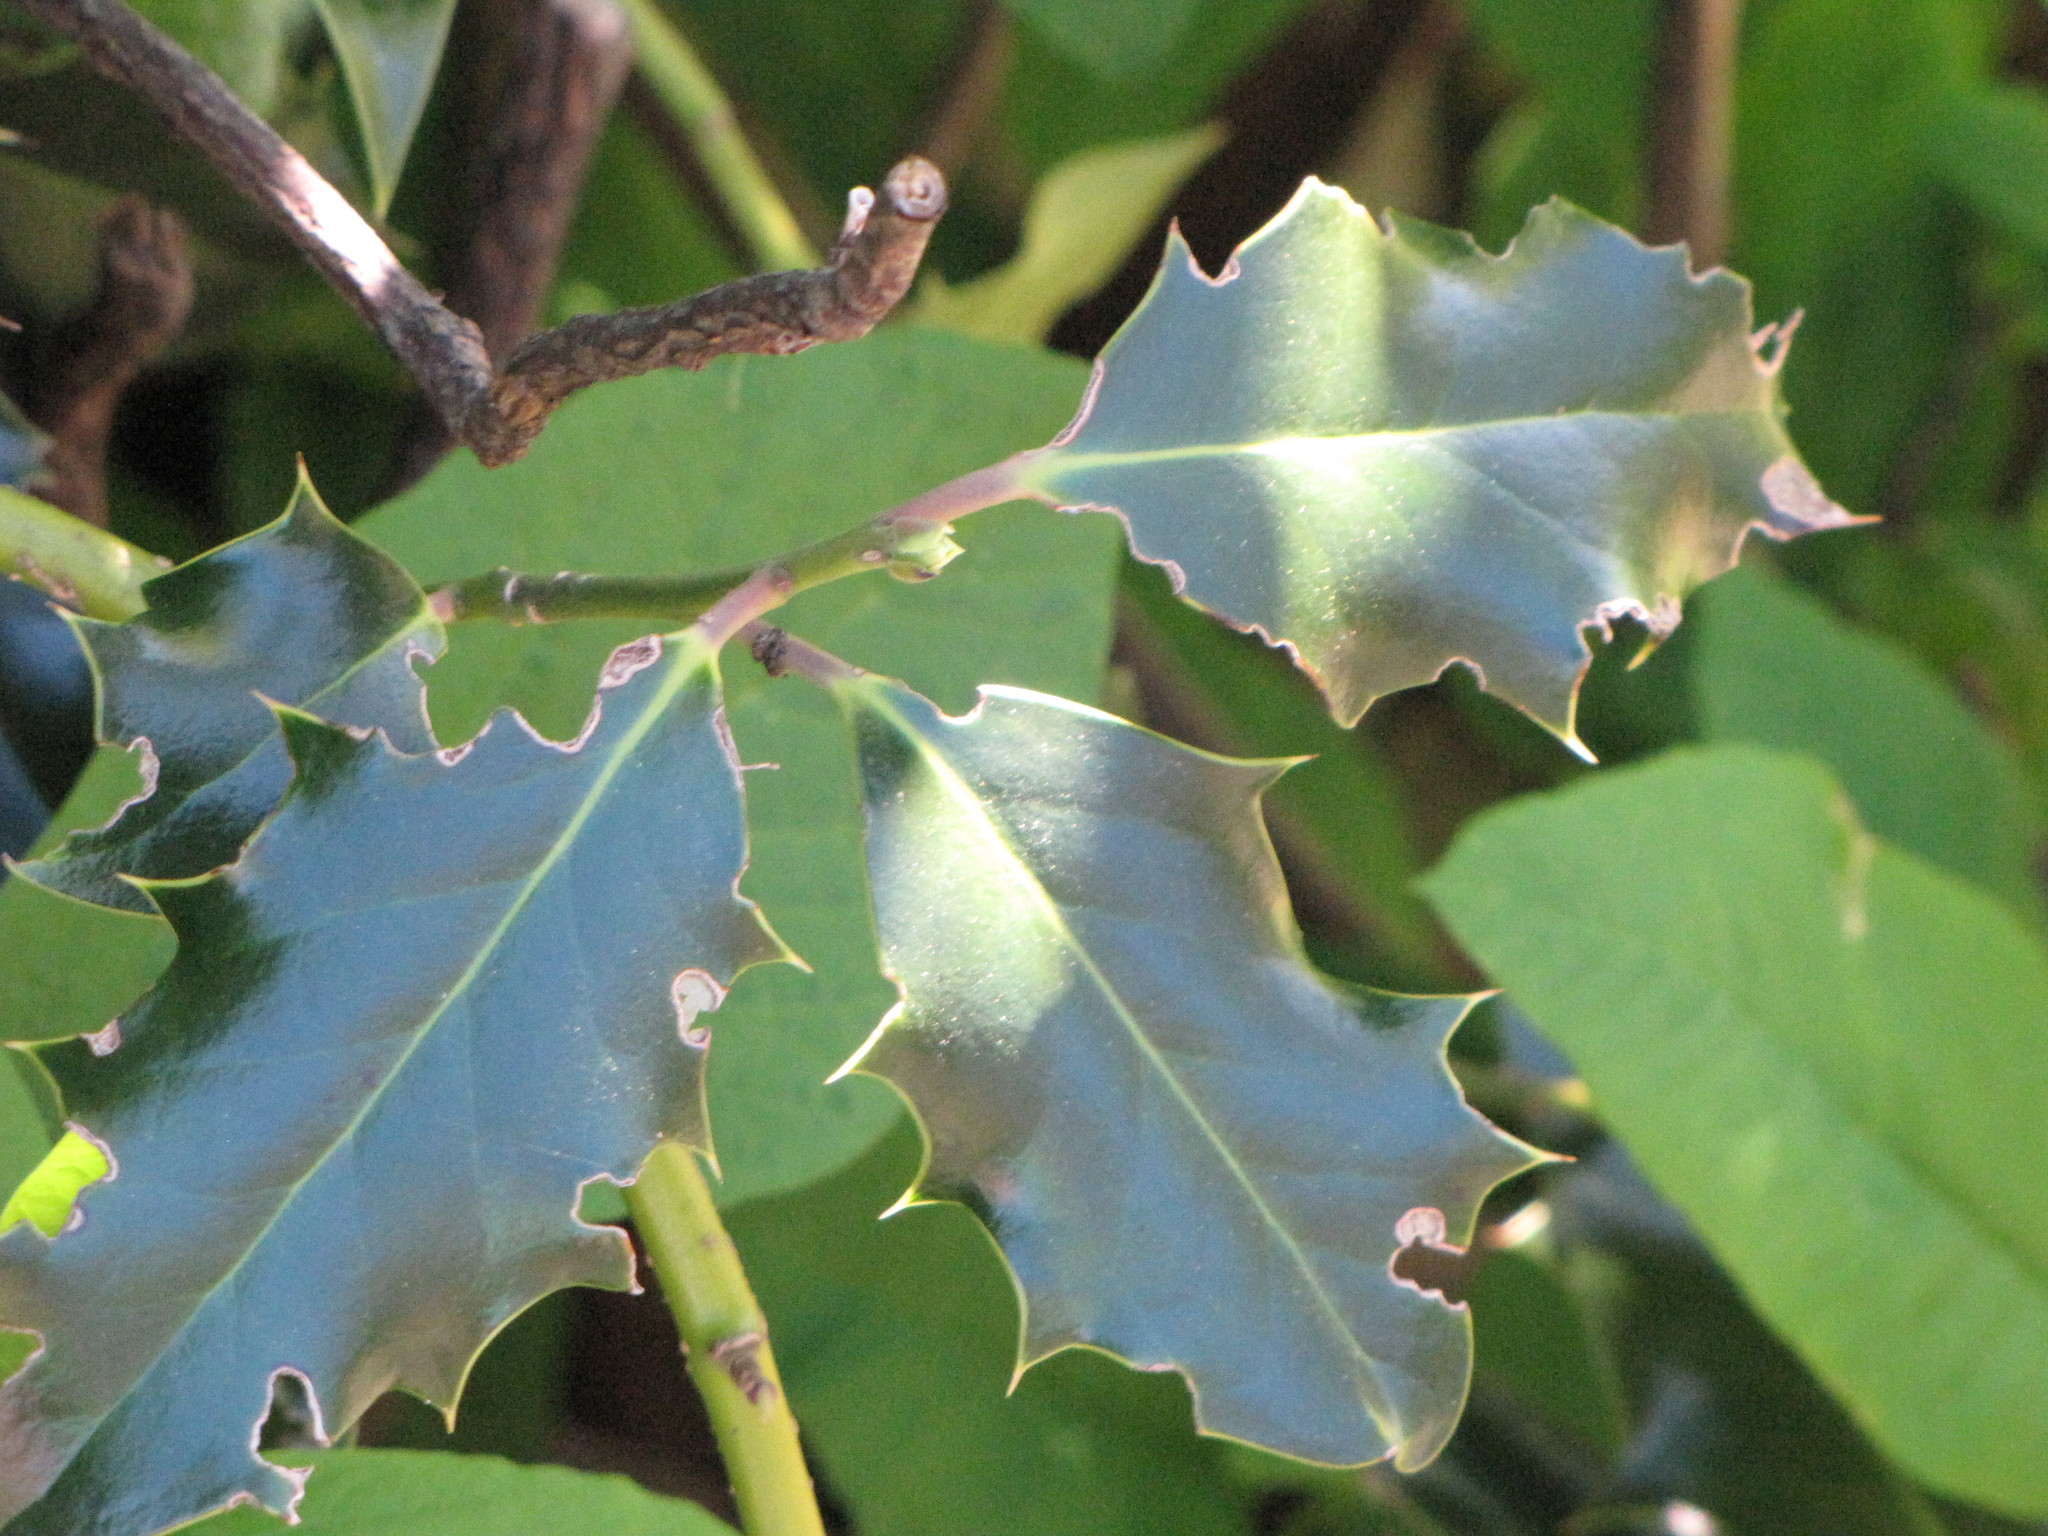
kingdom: Plantae
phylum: Tracheophyta
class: Magnoliopsida
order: Aquifoliales
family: Aquifoliaceae
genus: Ilex
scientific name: Ilex aquifolium
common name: English holly
